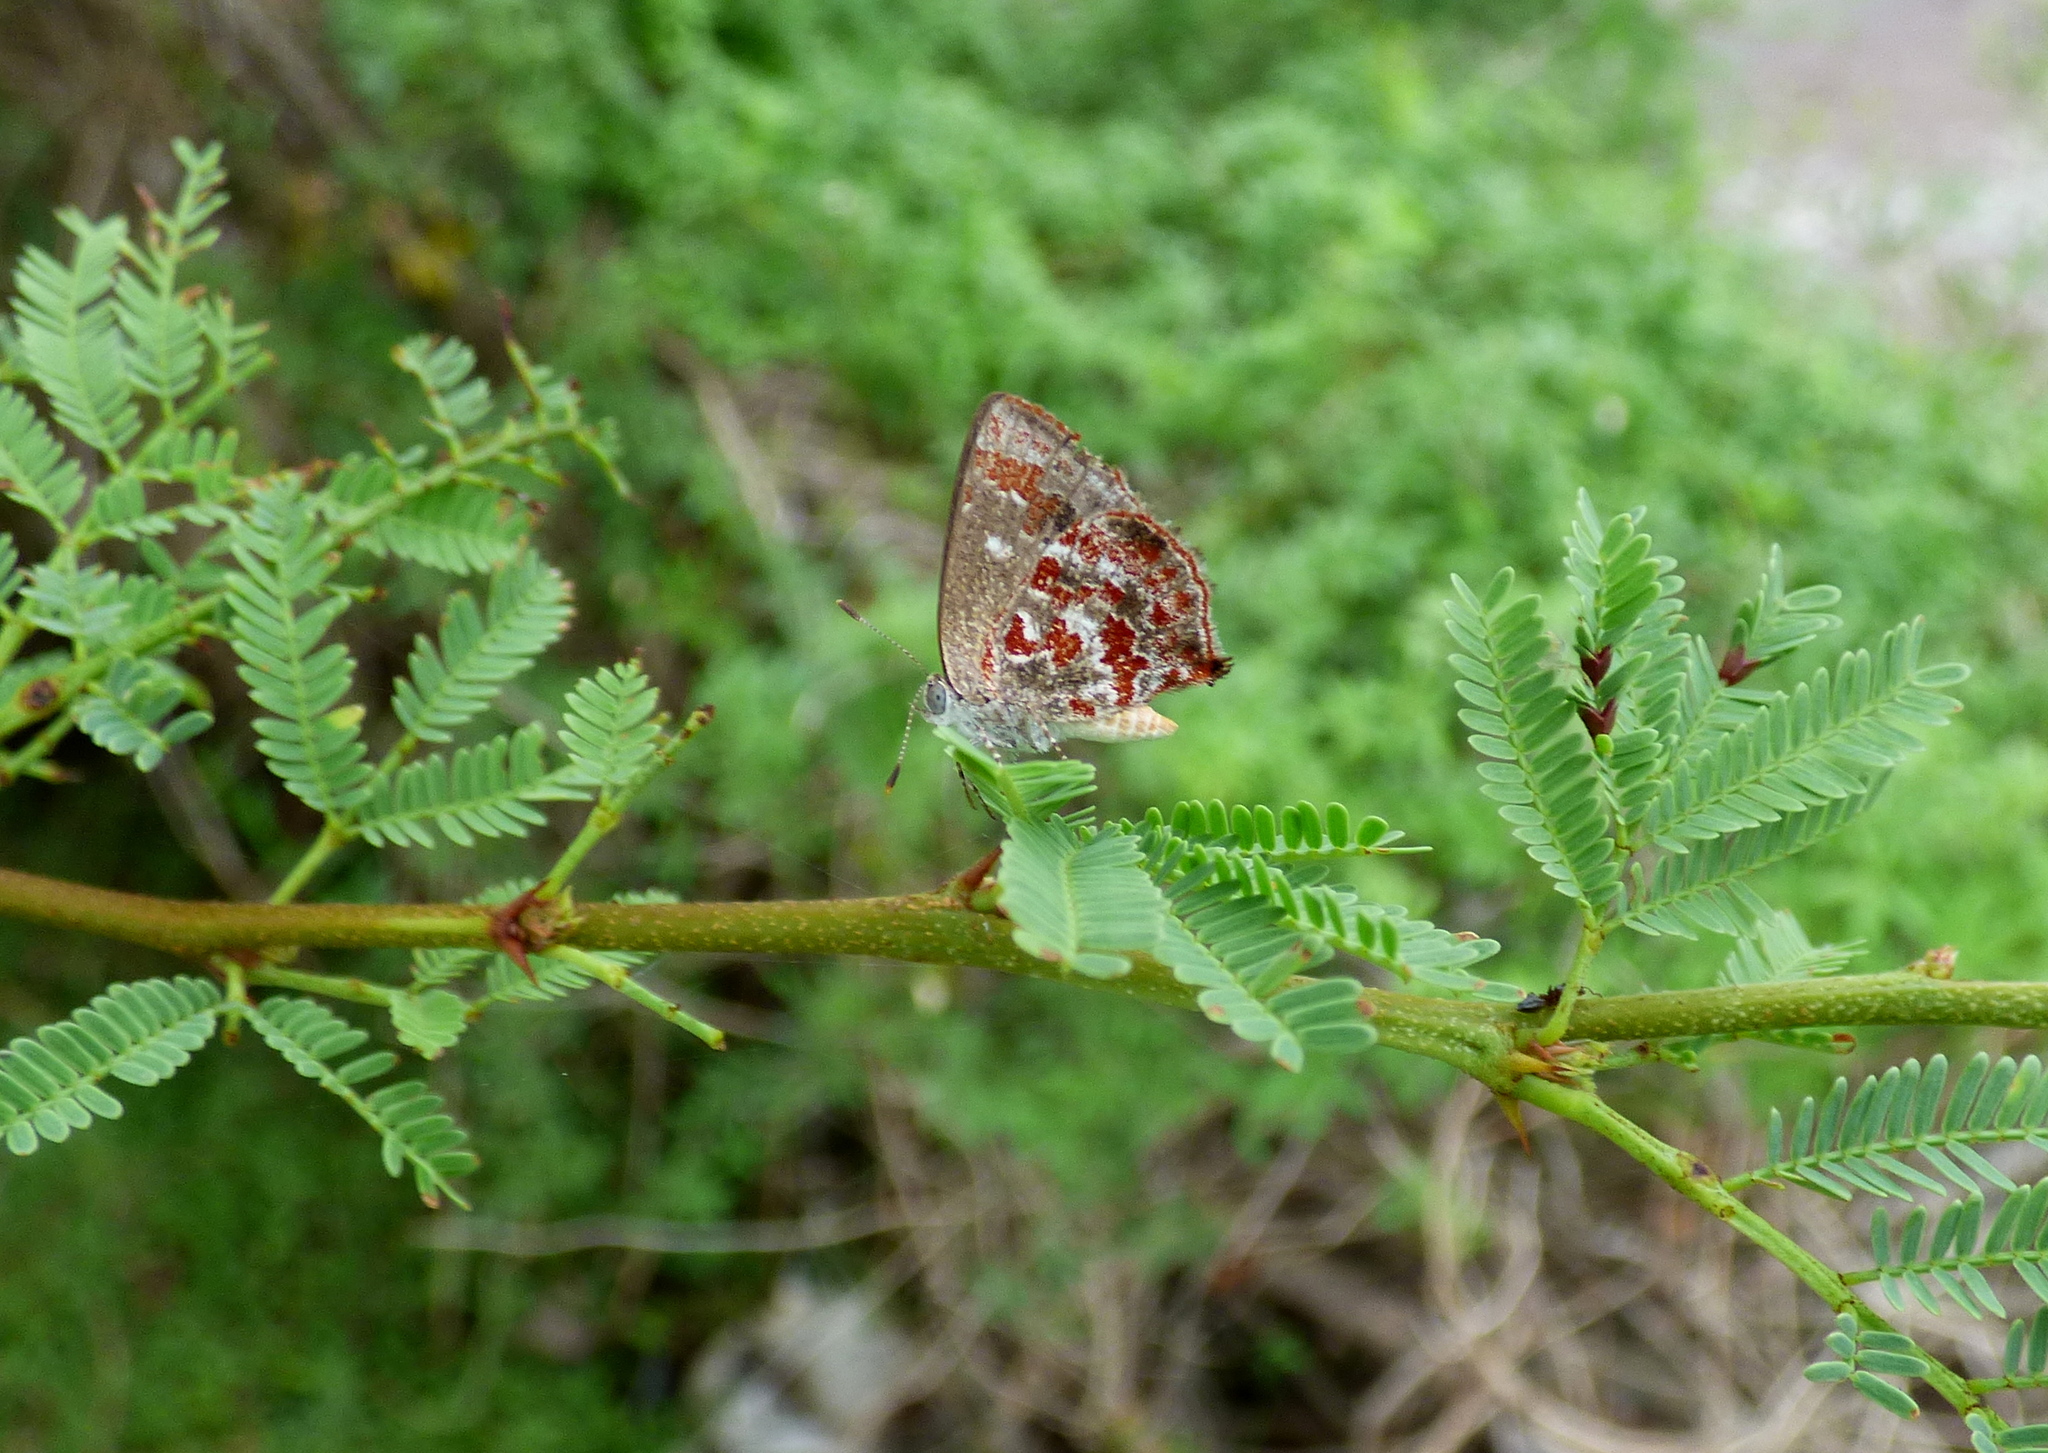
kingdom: Animalia
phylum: Arthropoda
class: Insecta
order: Lepidoptera
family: Lycaenidae
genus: Ministrymon
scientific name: Ministrymon
